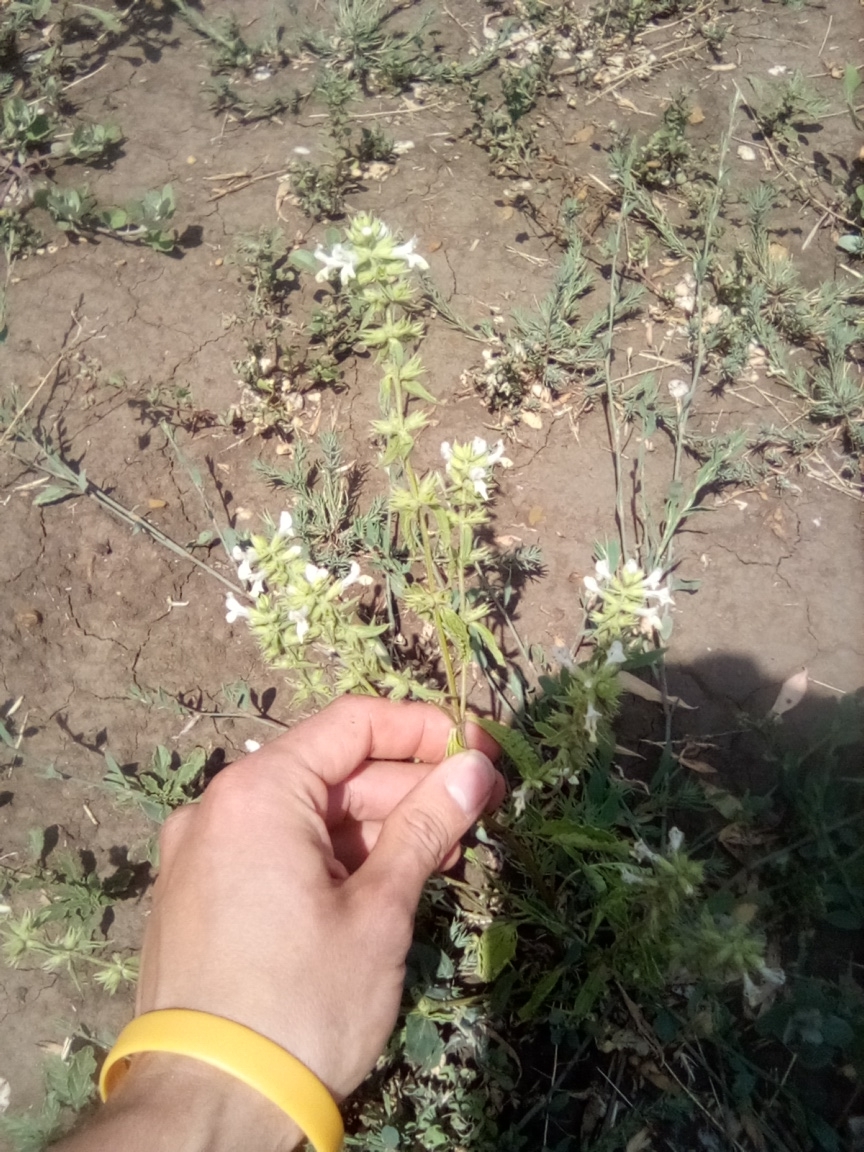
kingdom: Plantae
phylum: Tracheophyta
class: Magnoliopsida
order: Lamiales
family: Lamiaceae
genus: Stachys
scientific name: Stachys annua
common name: Annual yellow-woundwort
